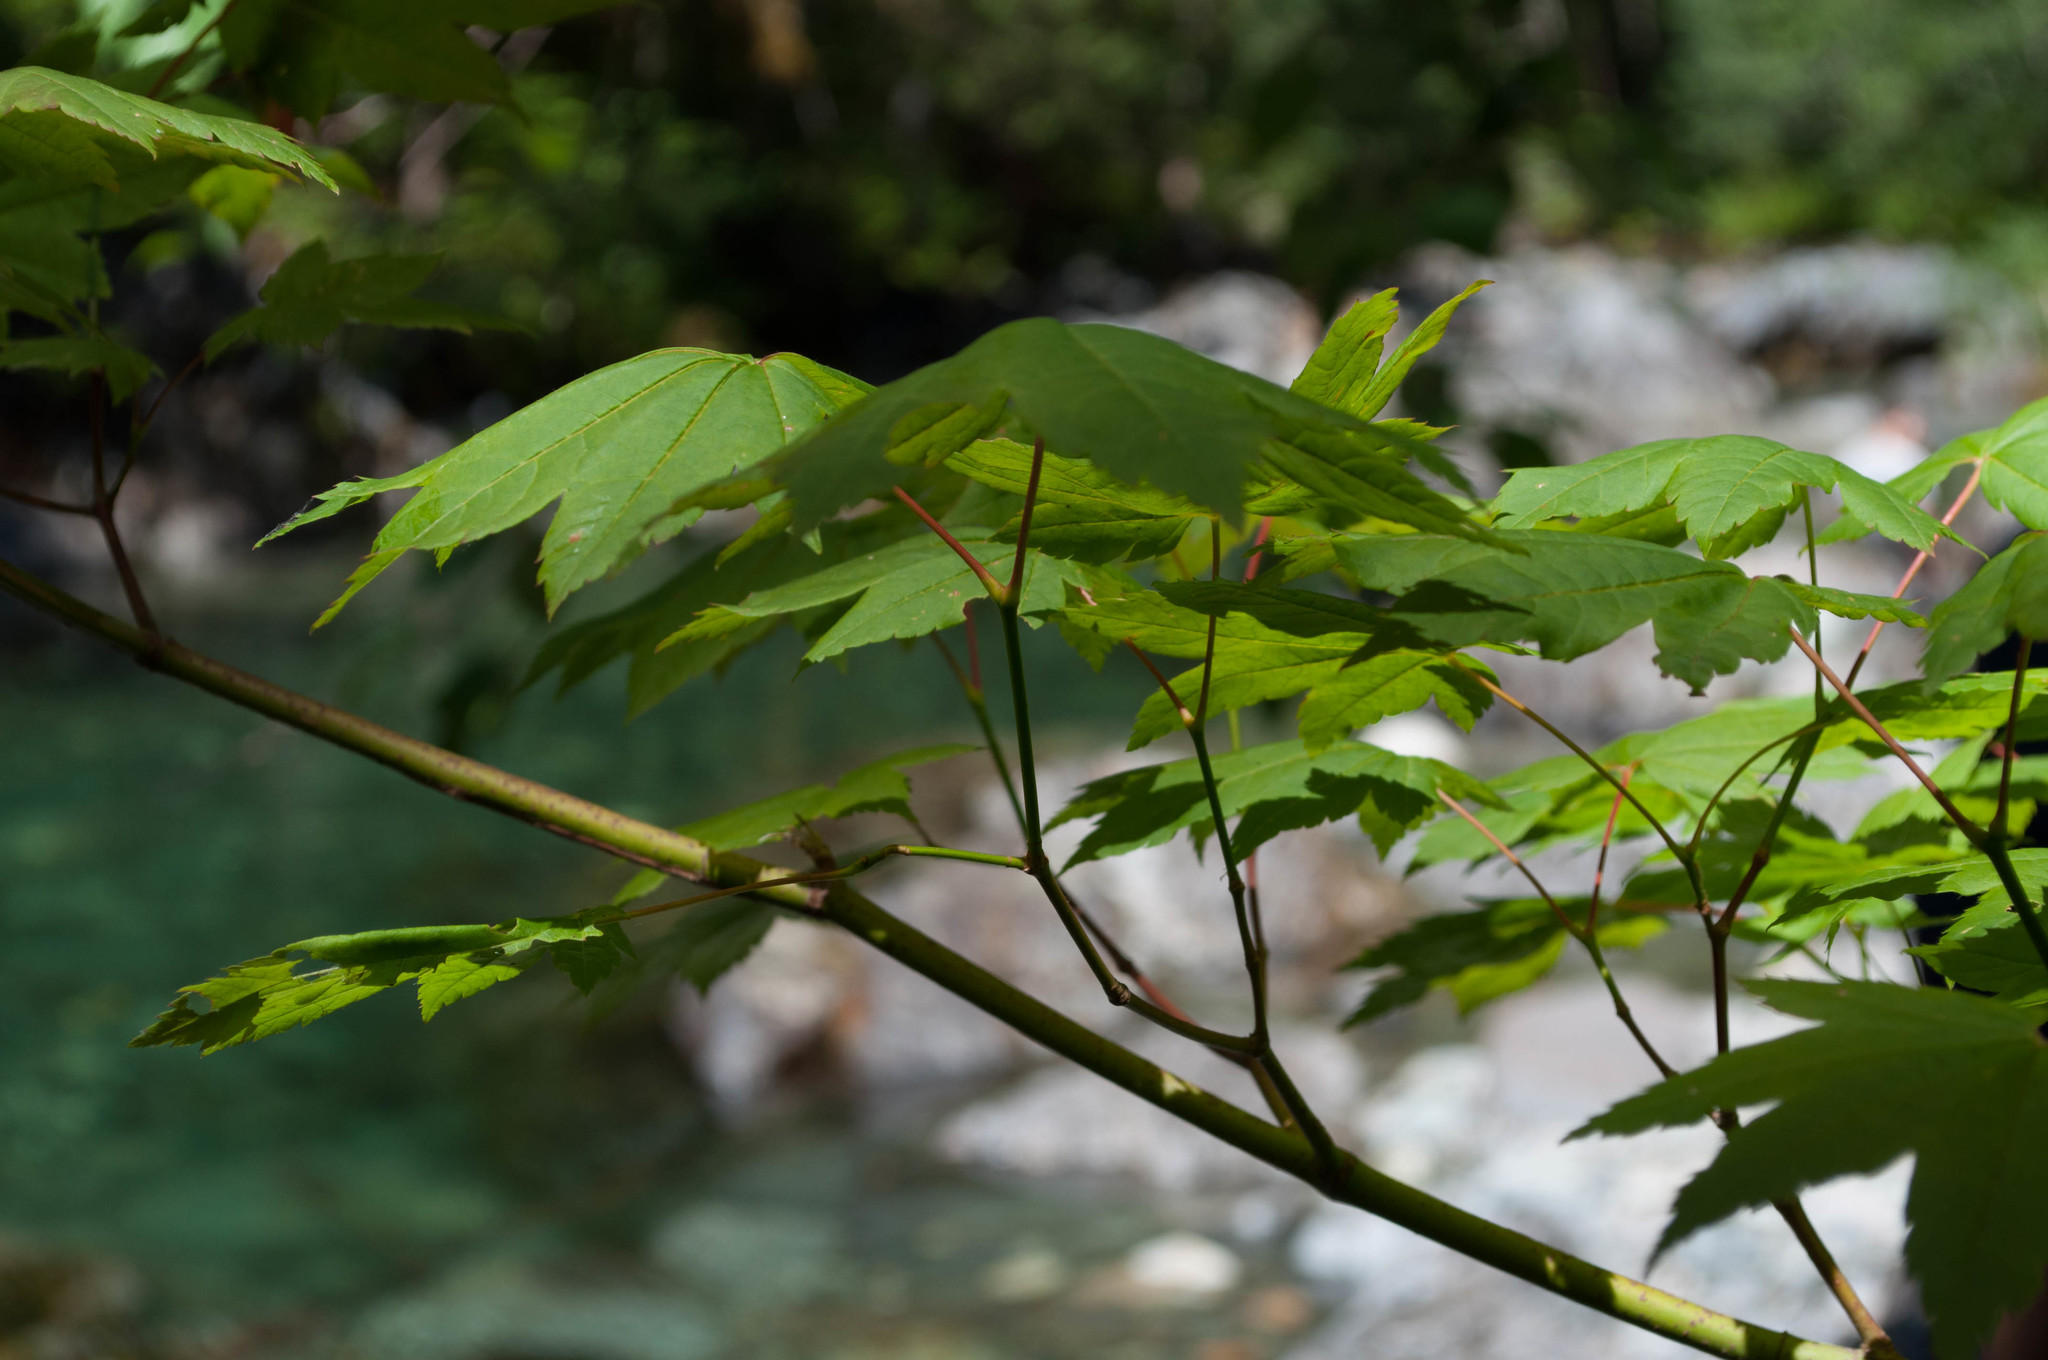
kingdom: Plantae
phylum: Tracheophyta
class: Magnoliopsida
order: Sapindales
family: Sapindaceae
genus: Acer
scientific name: Acer circinatum
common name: Vine maple
